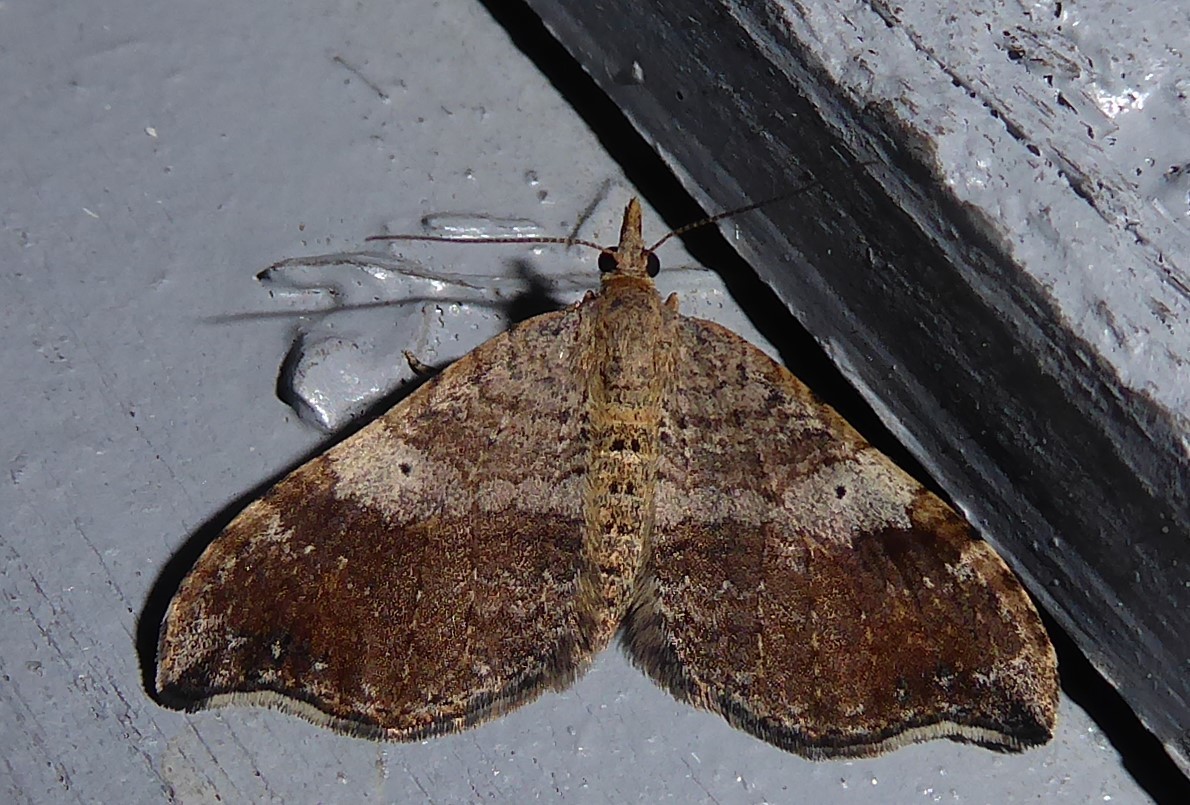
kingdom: Animalia
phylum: Arthropoda
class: Insecta
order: Lepidoptera
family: Geometridae
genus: Homodotis
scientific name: Homodotis megaspilata
